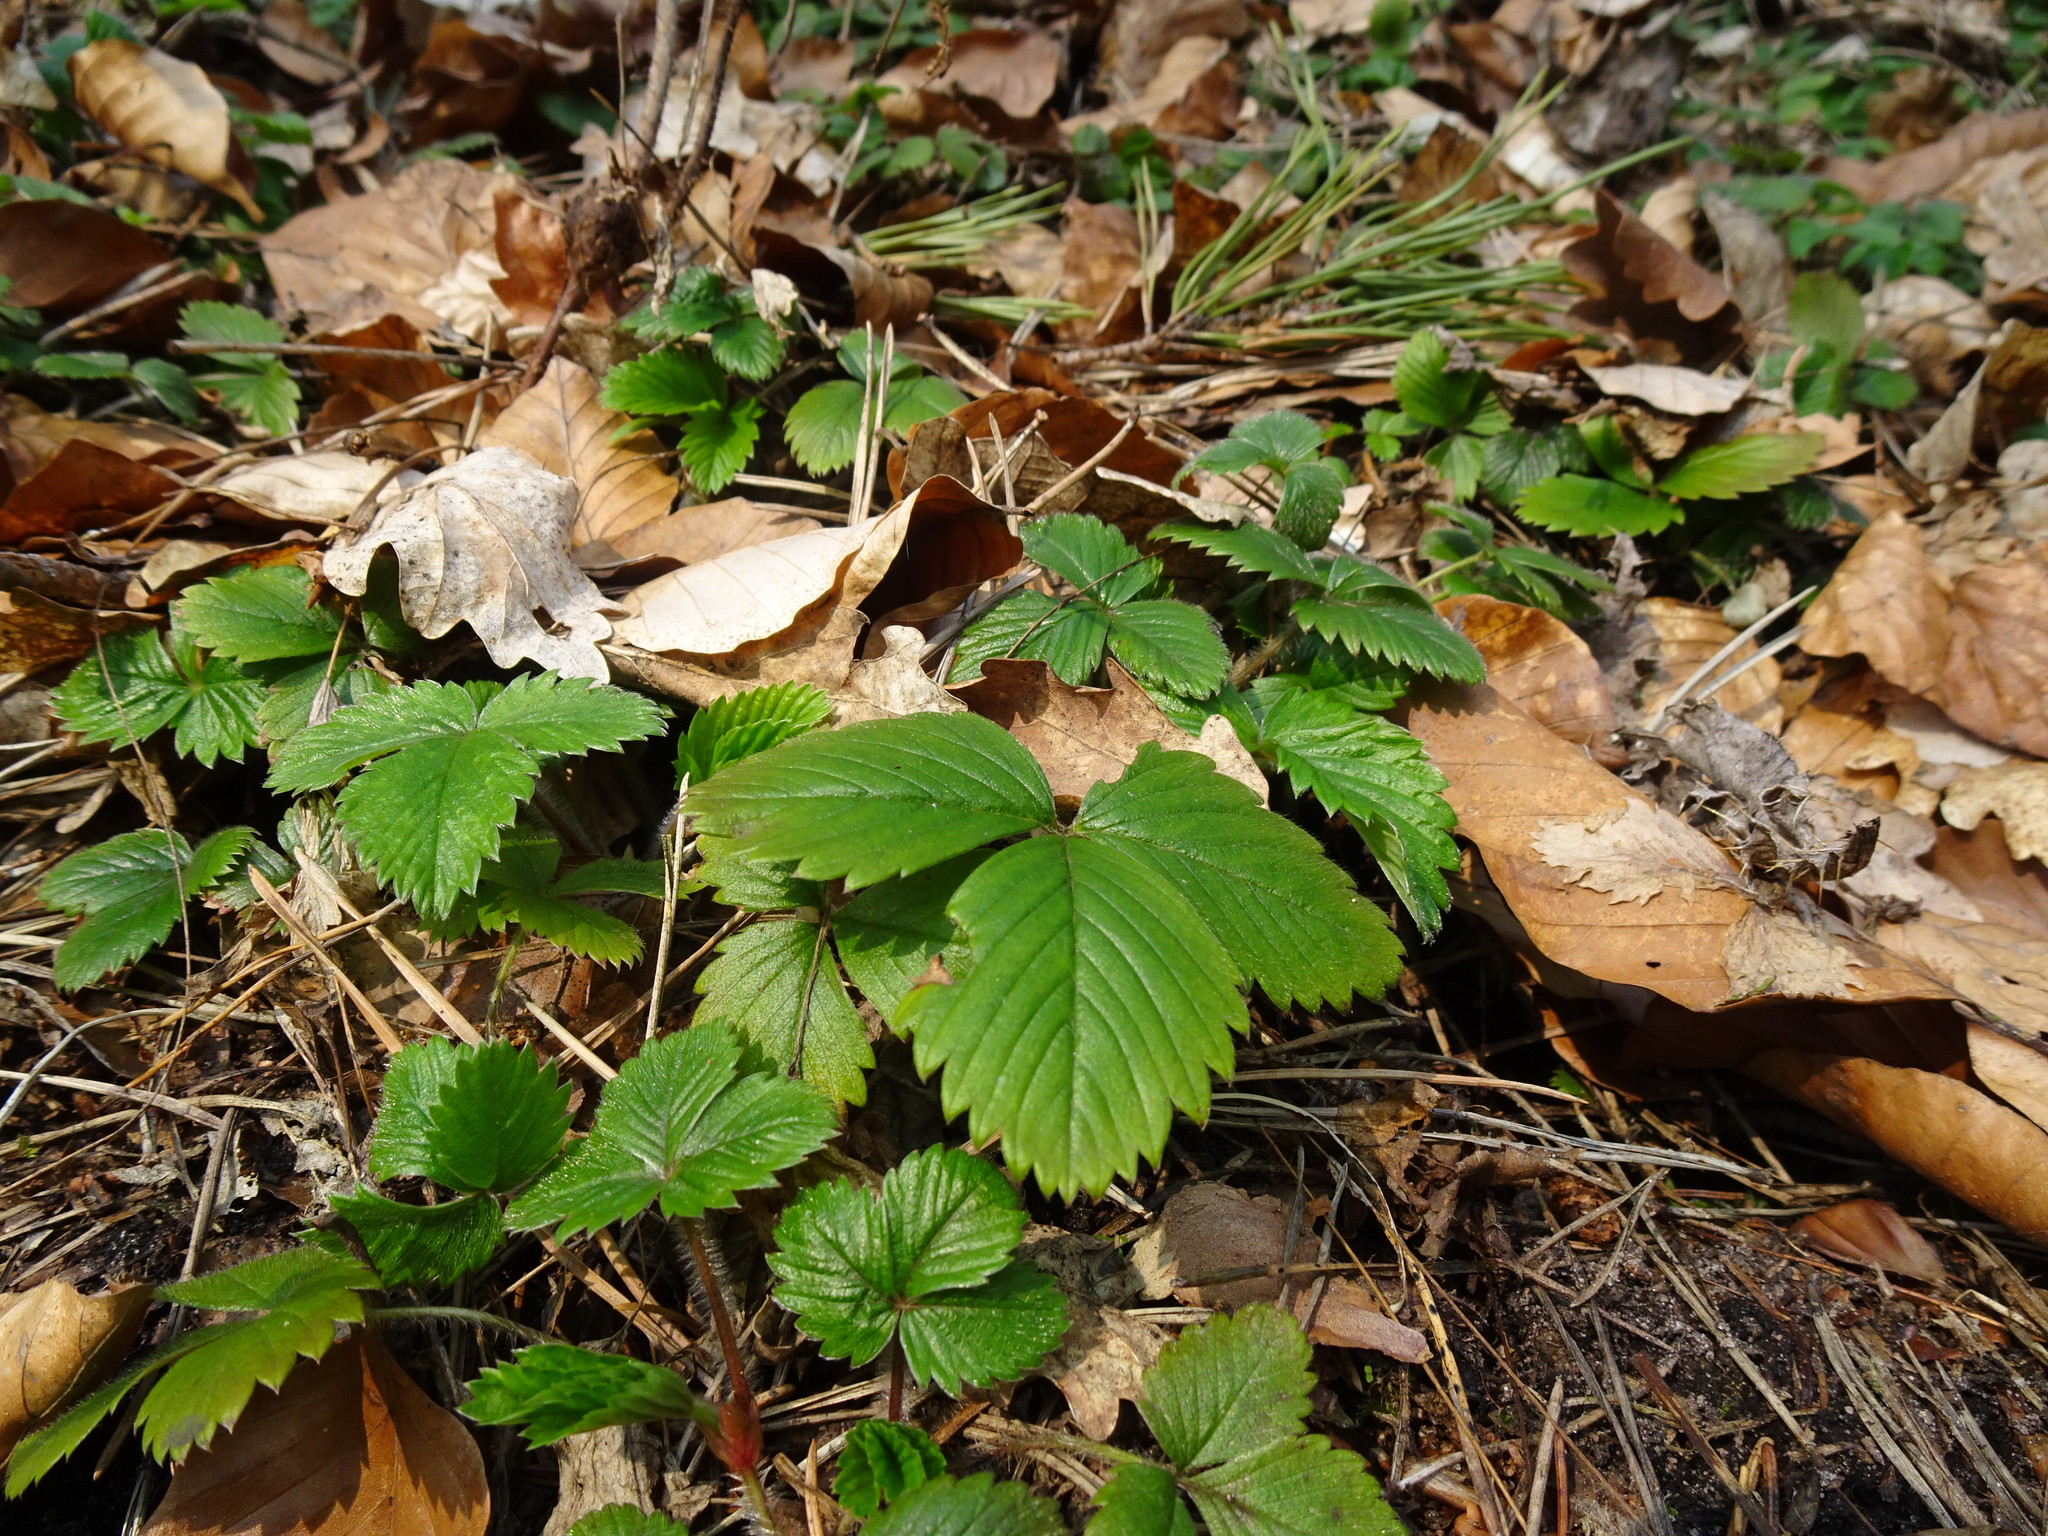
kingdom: Plantae
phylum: Tracheophyta
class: Magnoliopsida
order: Rosales
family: Rosaceae
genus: Fragaria
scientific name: Fragaria vesca
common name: Wild strawberry
